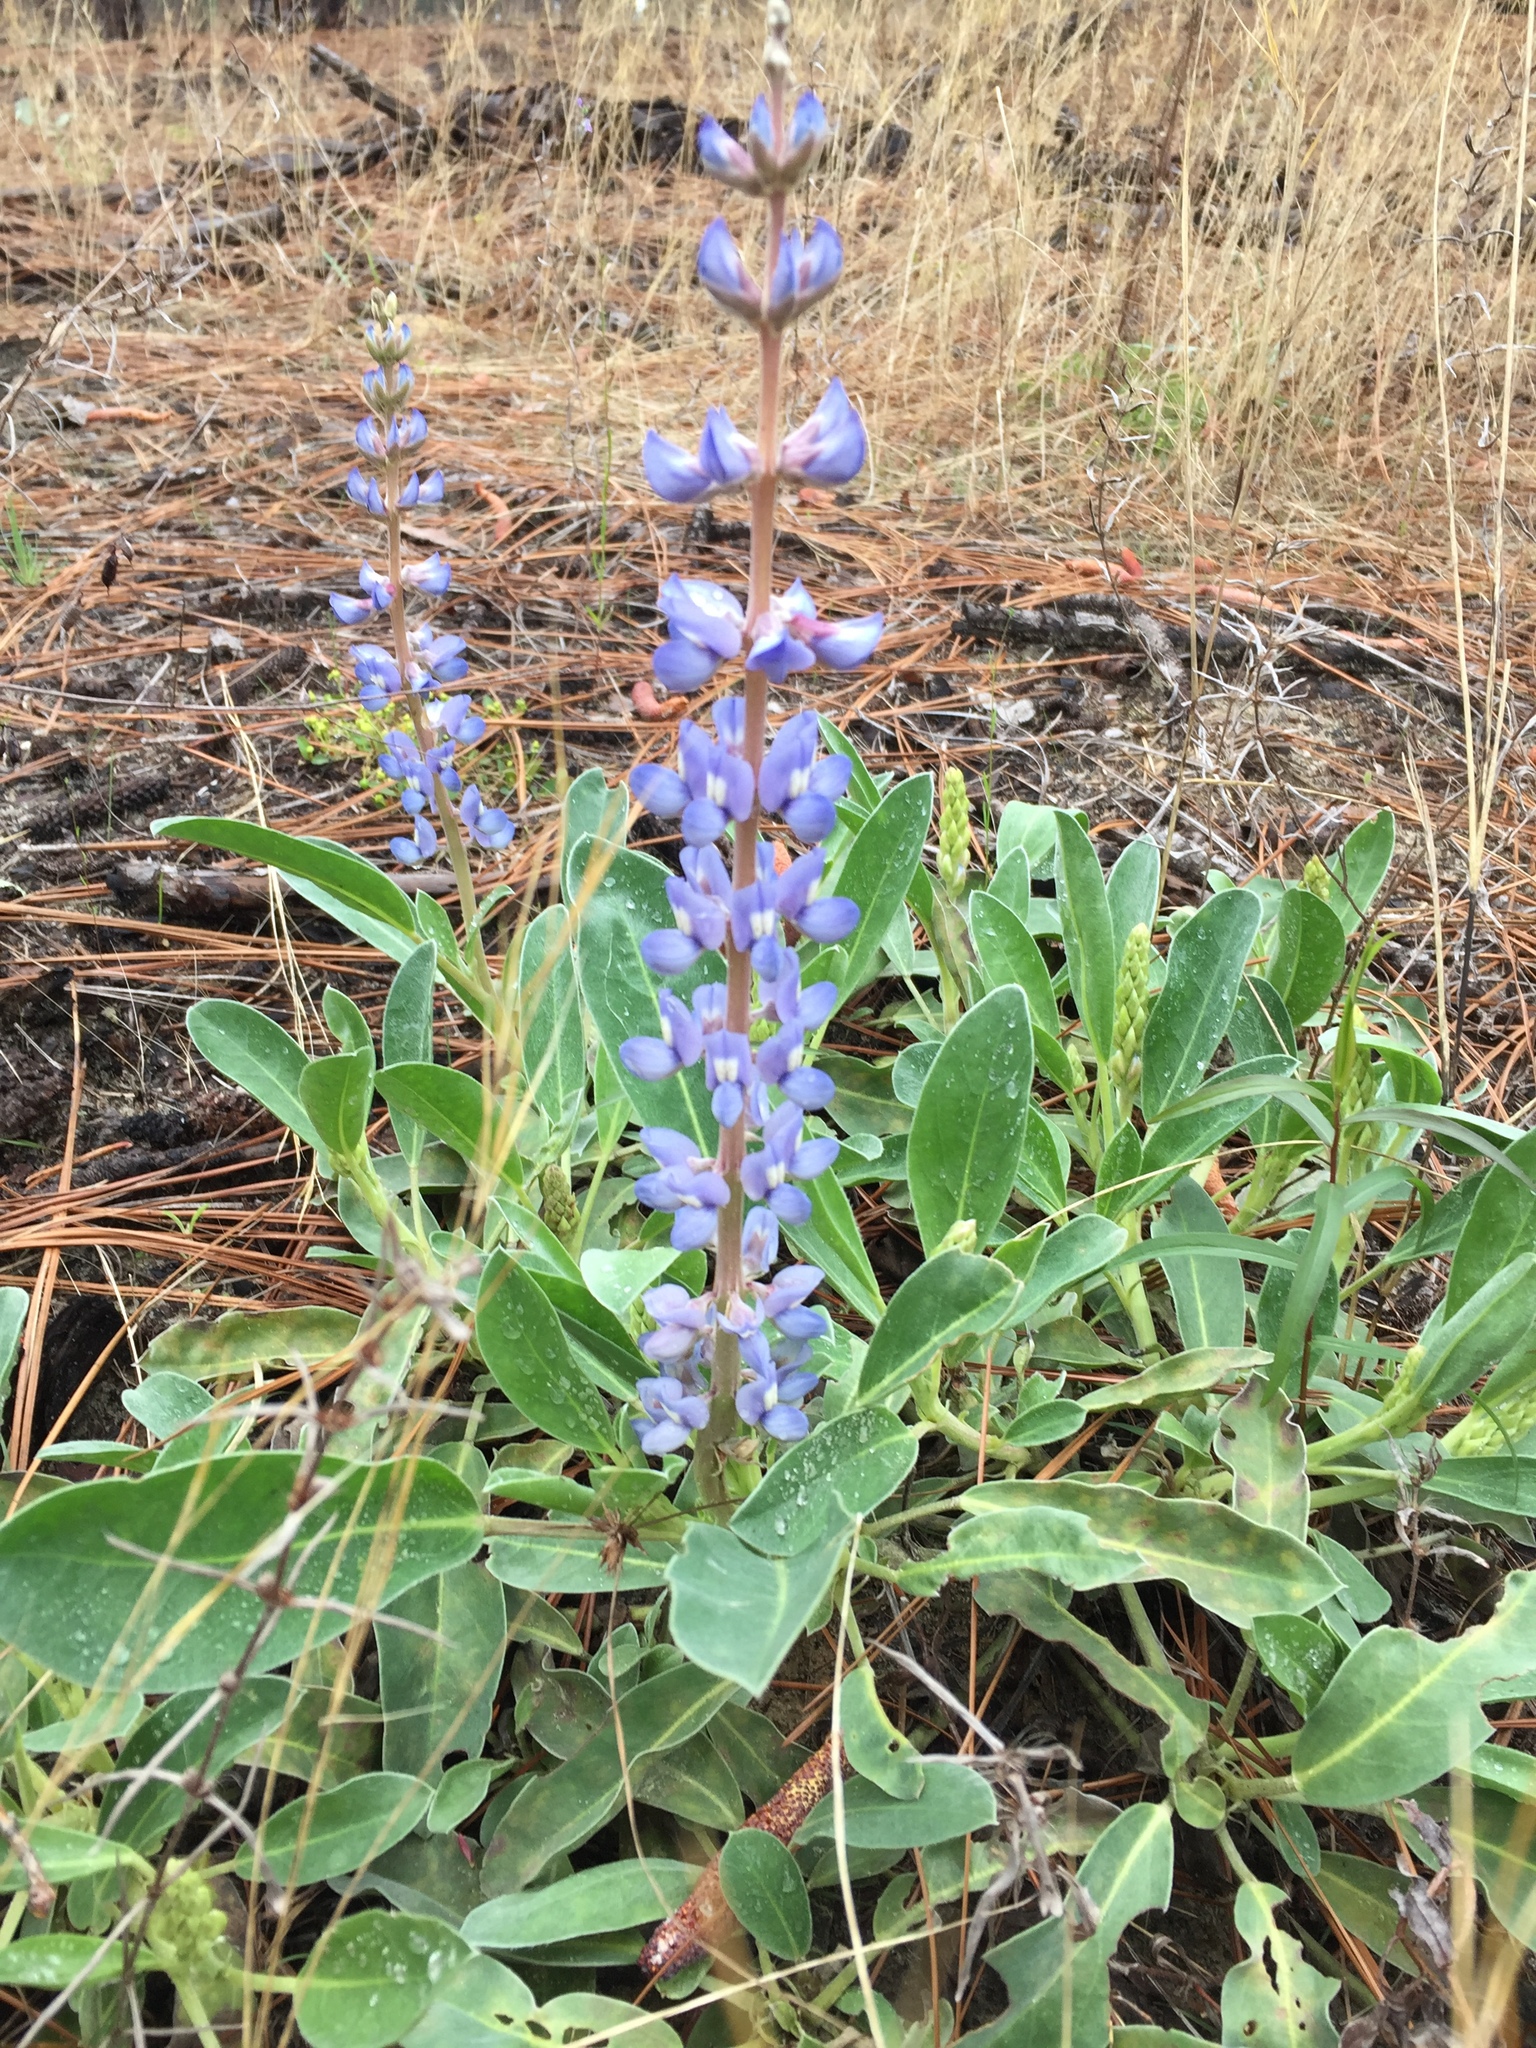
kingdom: Plantae
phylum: Tracheophyta
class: Magnoliopsida
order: Fabales
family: Fabaceae
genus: Lupinus
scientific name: Lupinus diffusus
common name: Oak ridge lupine
